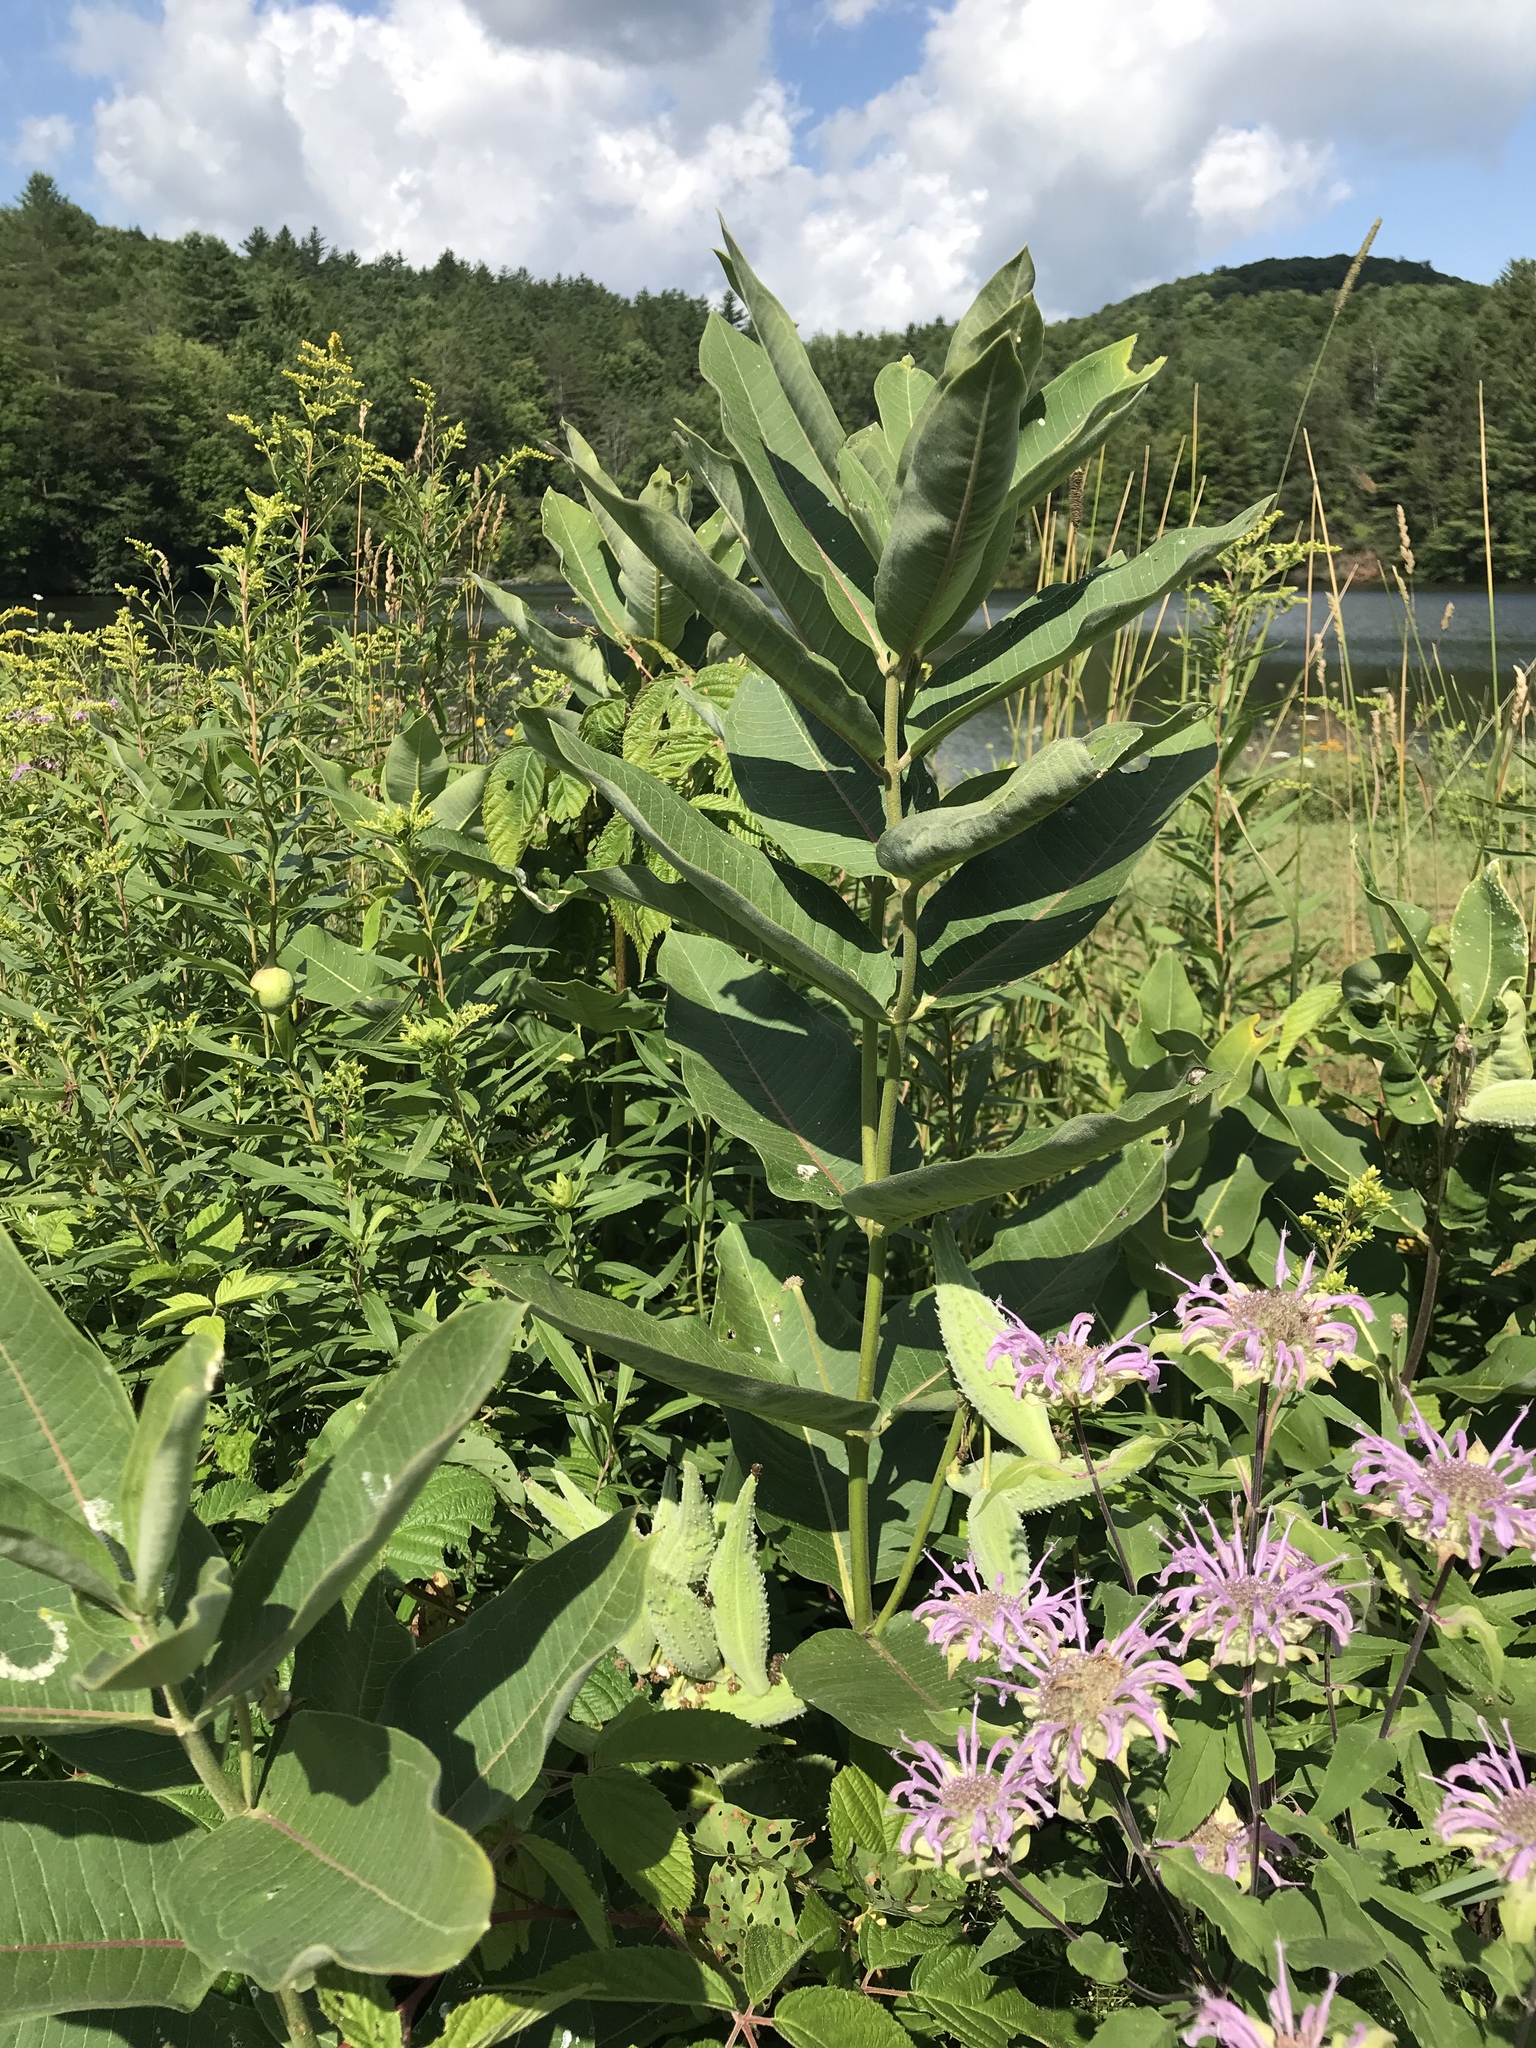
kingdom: Plantae
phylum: Tracheophyta
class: Magnoliopsida
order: Gentianales
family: Apocynaceae
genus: Asclepias
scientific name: Asclepias syriaca
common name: Common milkweed
